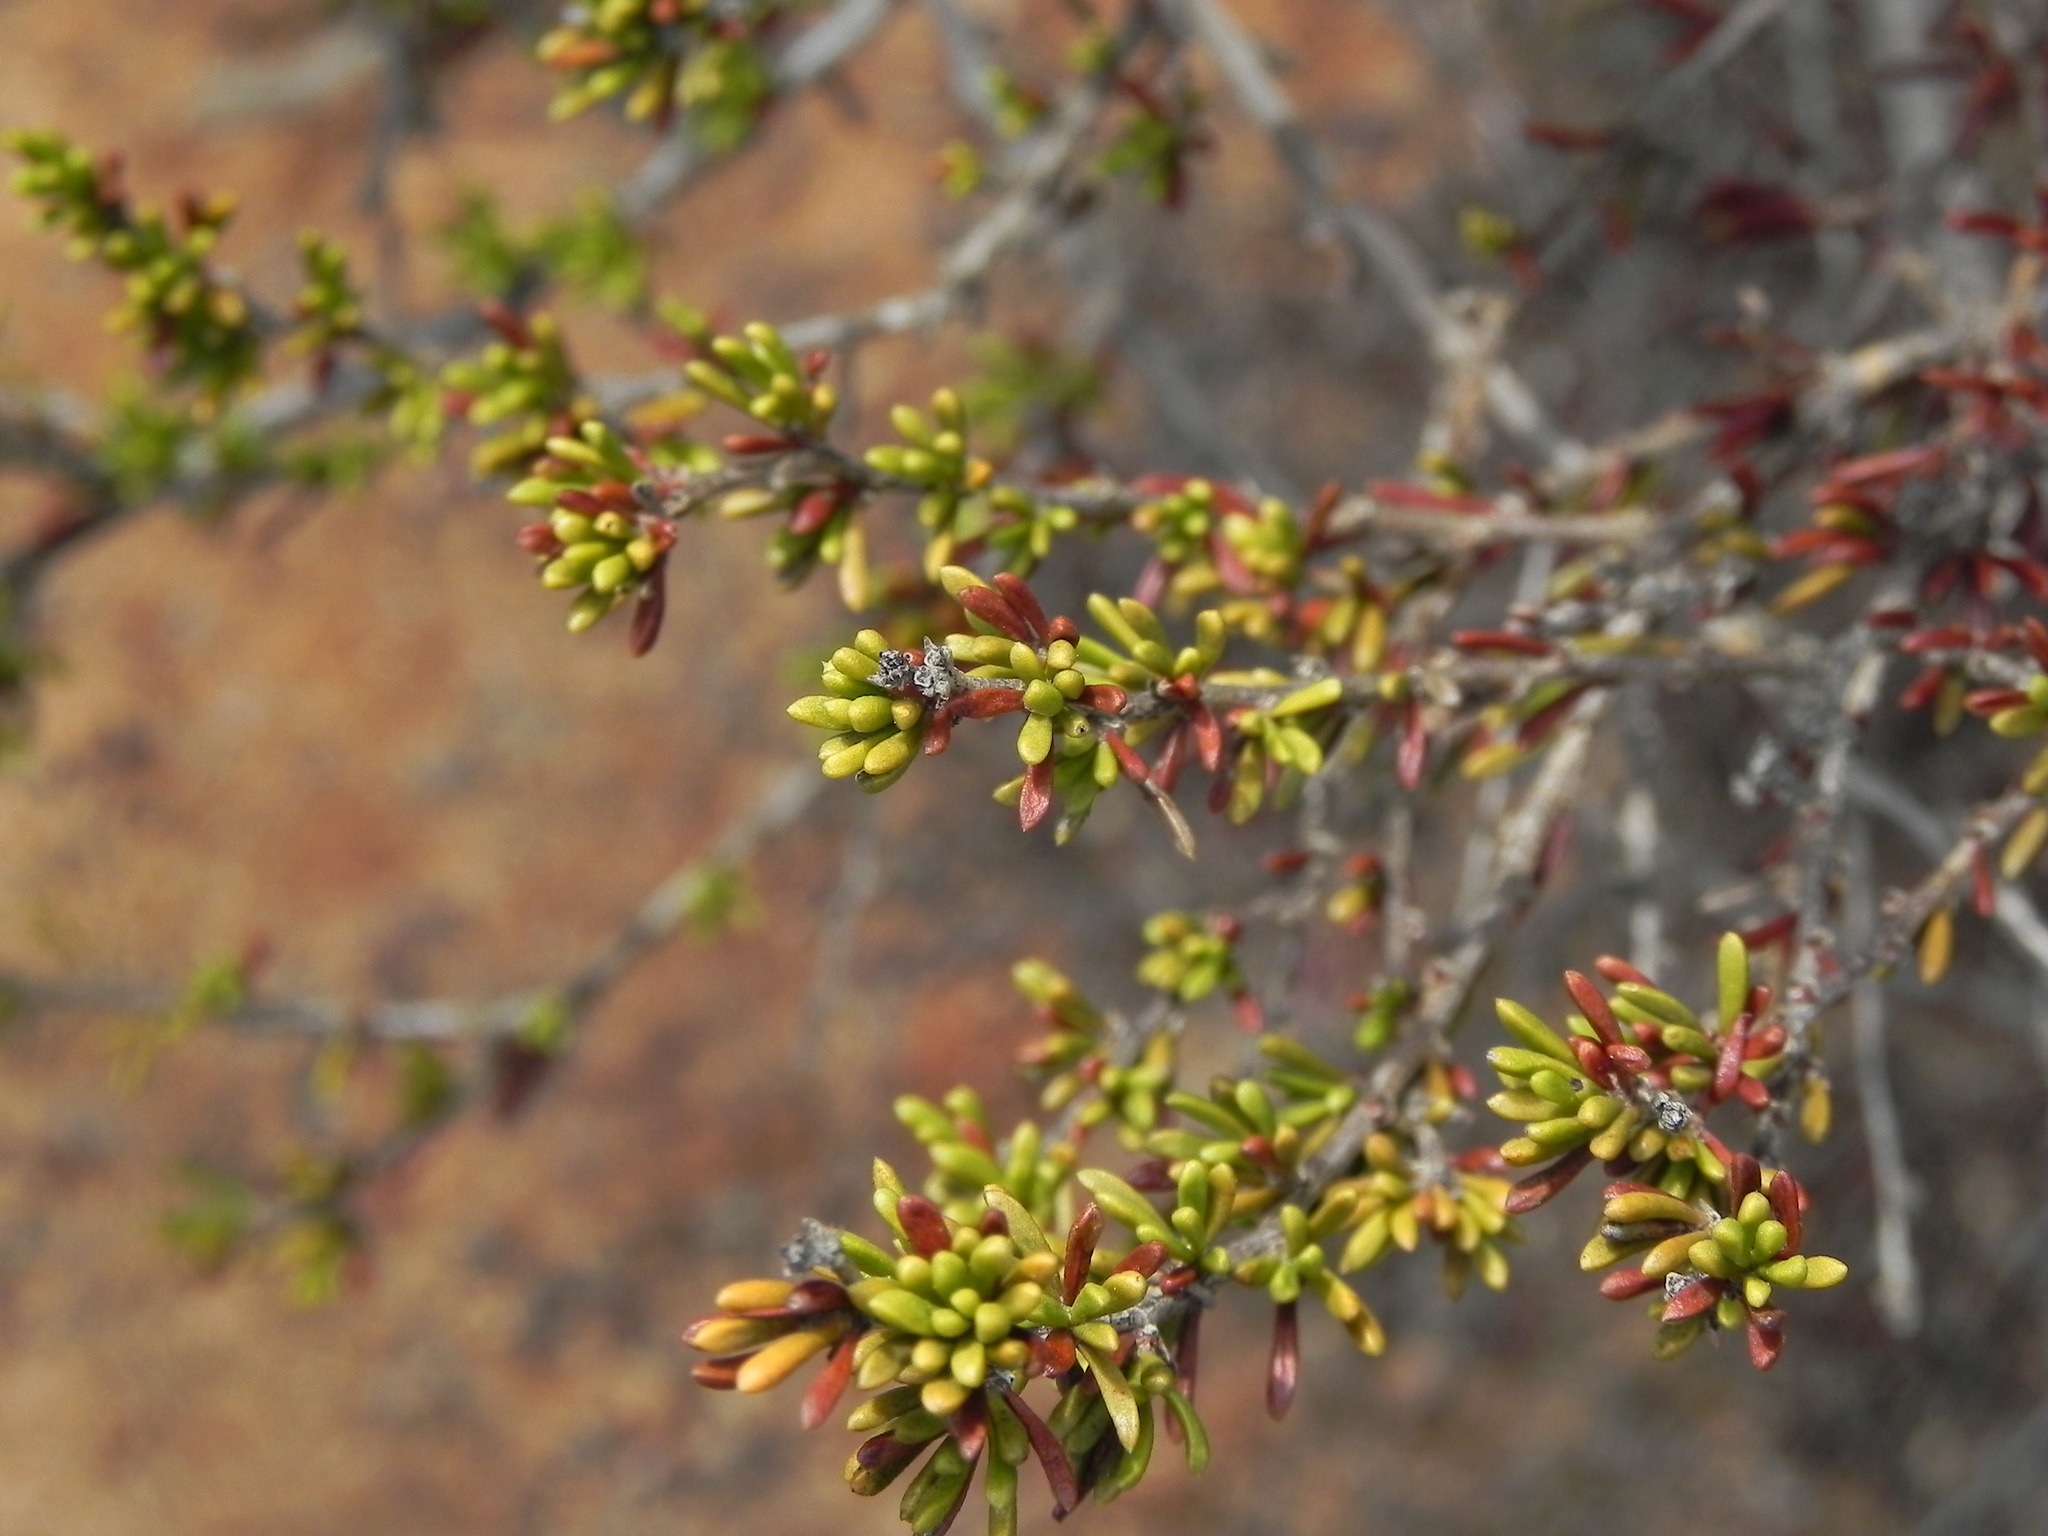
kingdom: Plantae
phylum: Tracheophyta
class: Magnoliopsida
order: Rosales
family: Rosaceae
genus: Adenostoma
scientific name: Adenostoma fasciculatum
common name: Chamise
